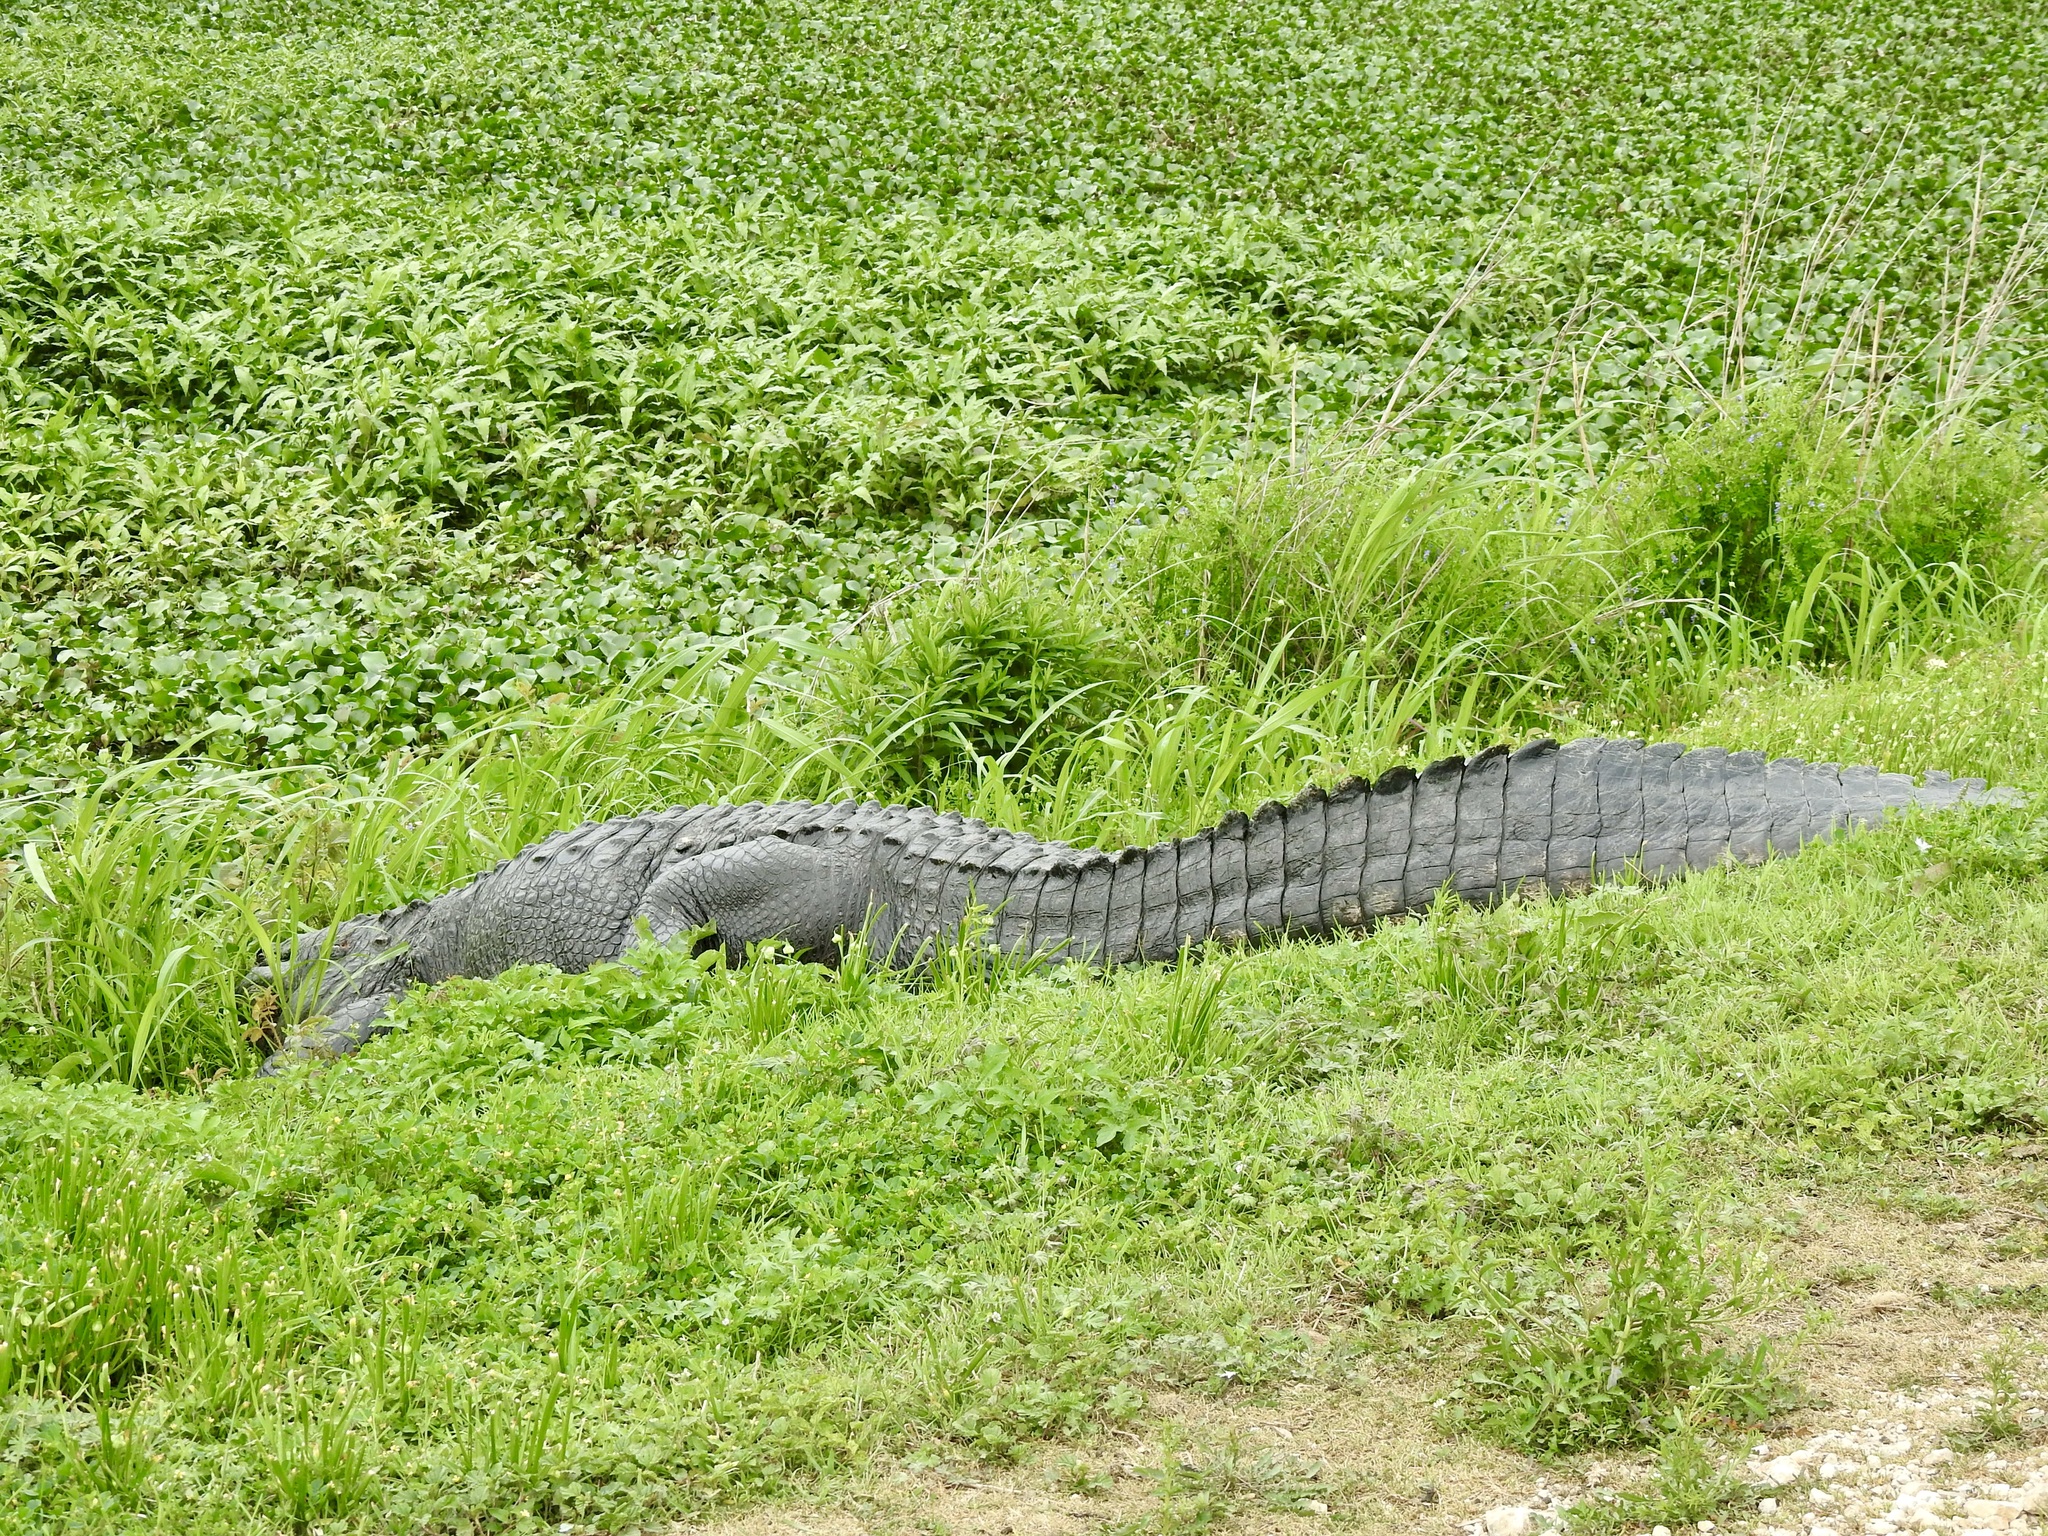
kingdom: Animalia
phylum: Chordata
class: Crocodylia
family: Alligatoridae
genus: Alligator
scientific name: Alligator mississippiensis
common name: American alligator
